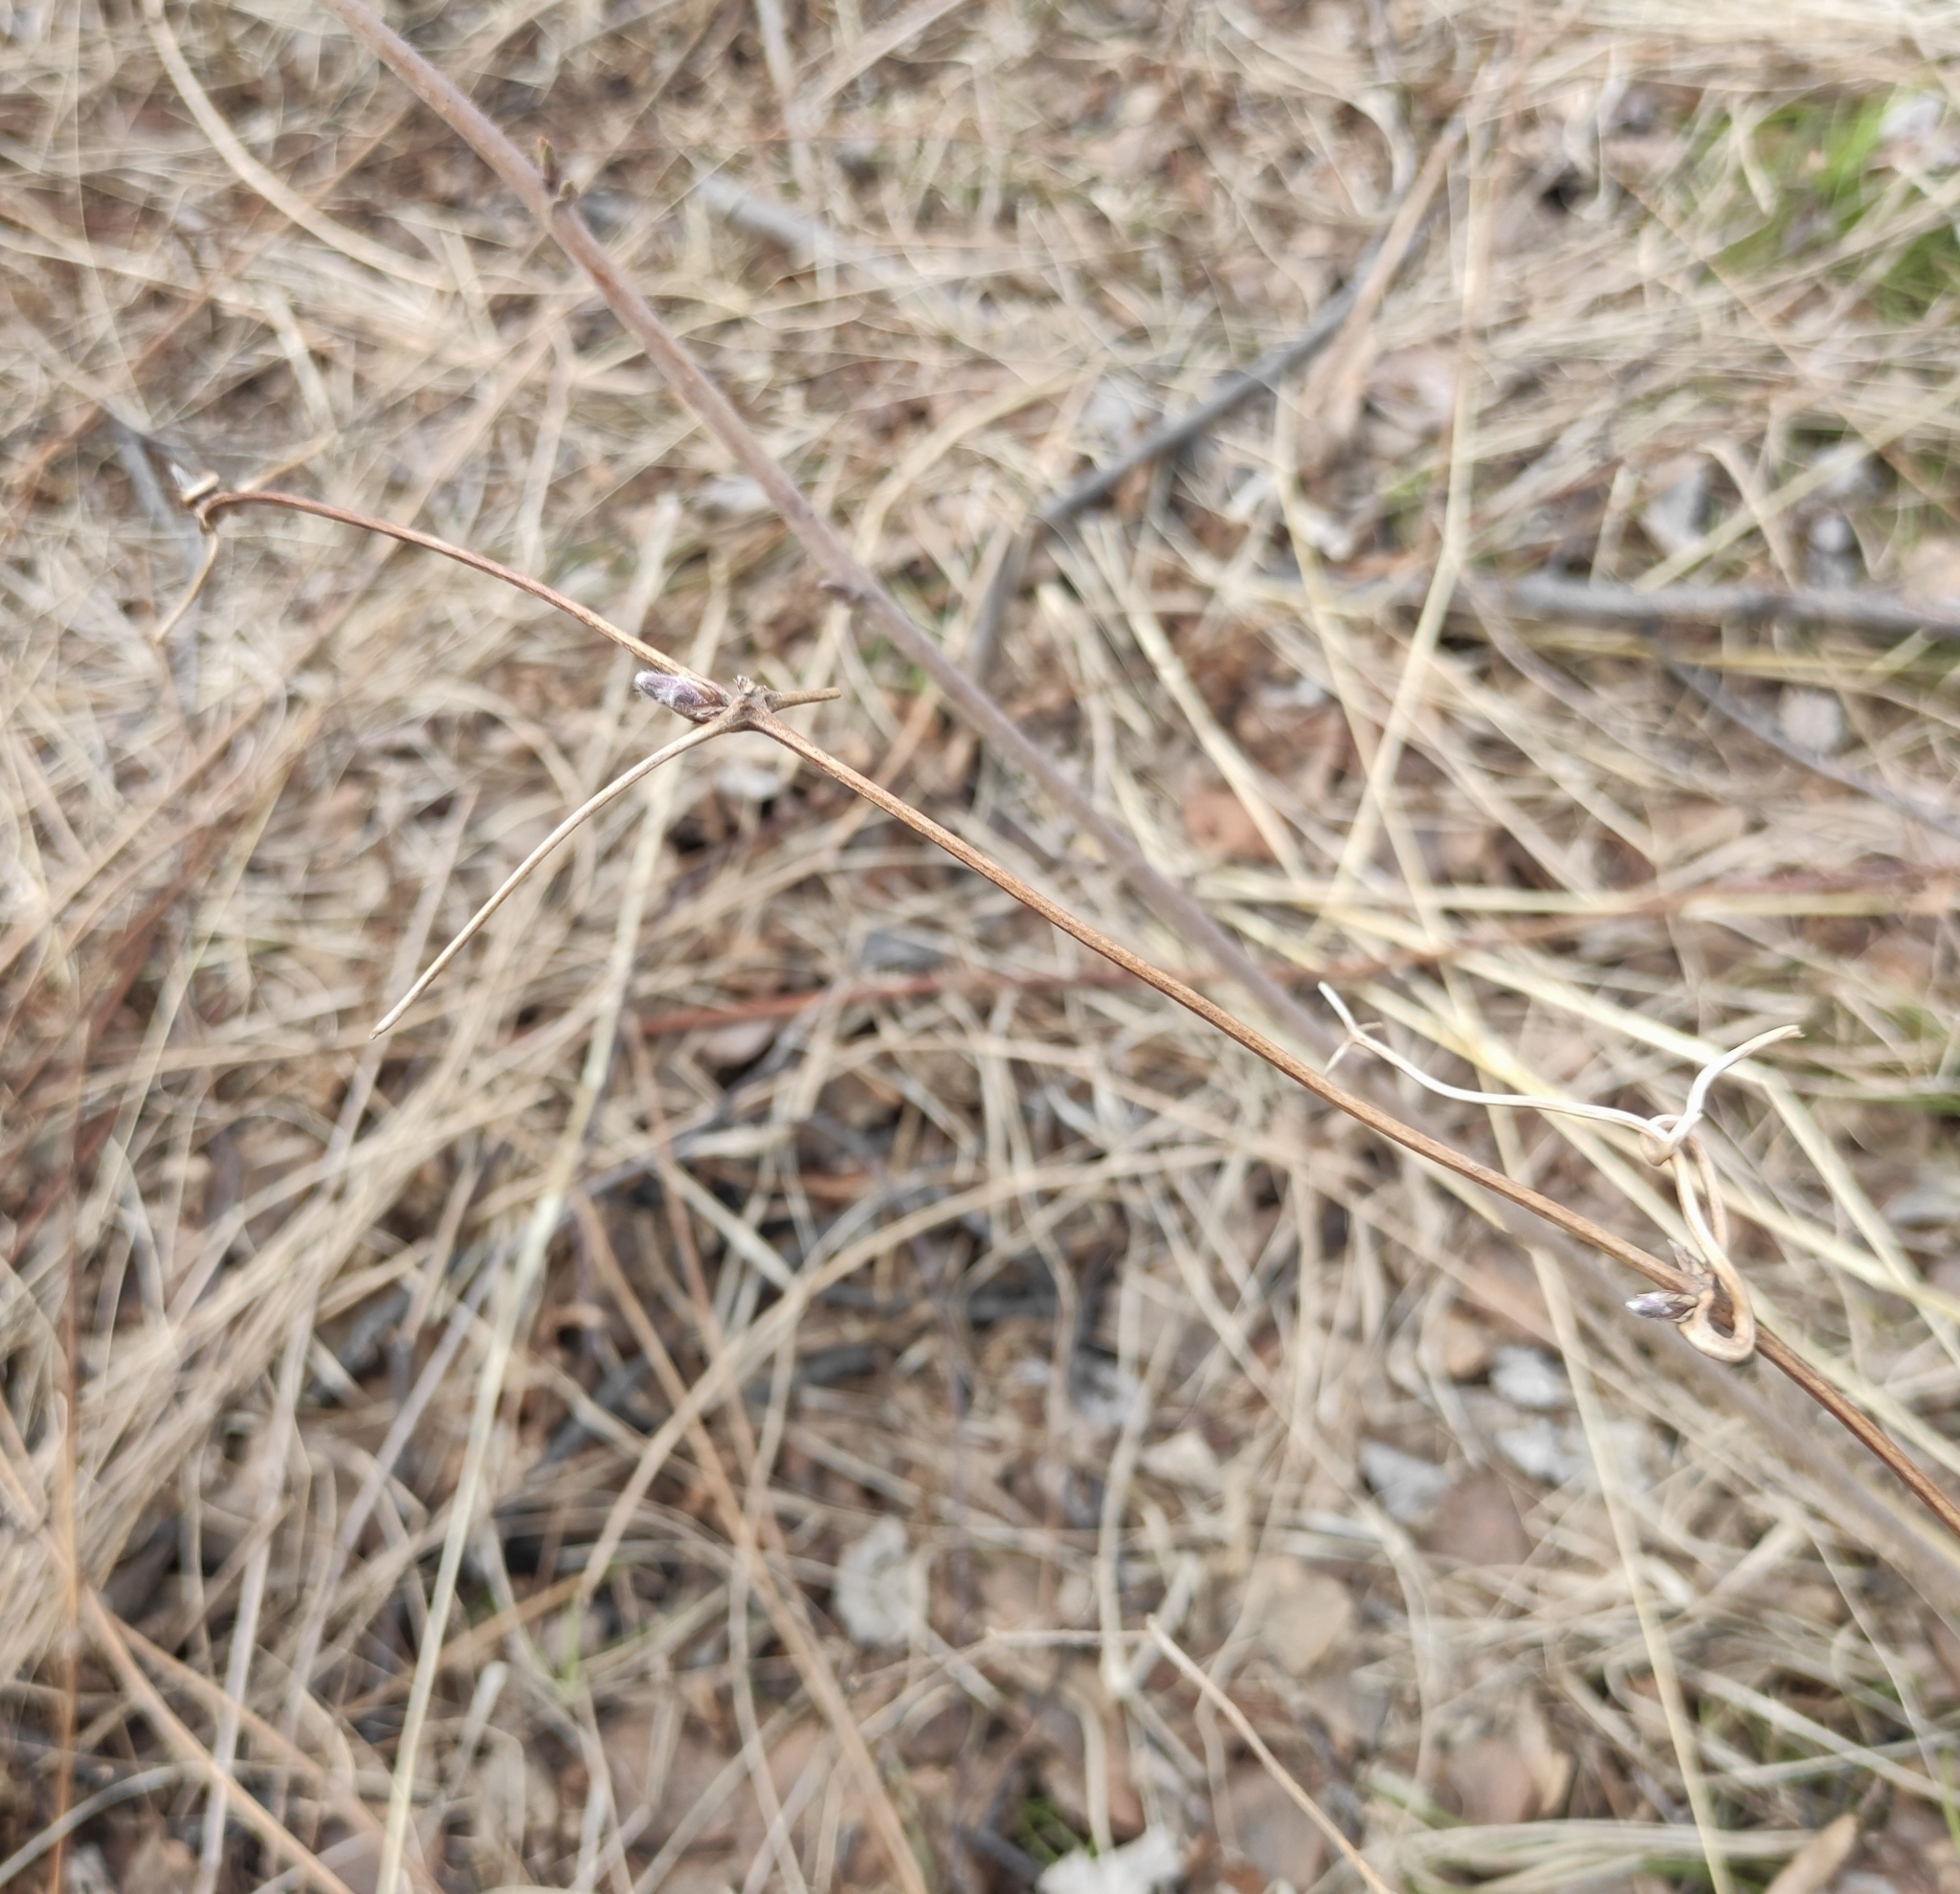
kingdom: Plantae
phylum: Tracheophyta
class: Magnoliopsida
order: Ranunculales
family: Ranunculaceae
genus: Clematis
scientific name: Clematis sibirica
